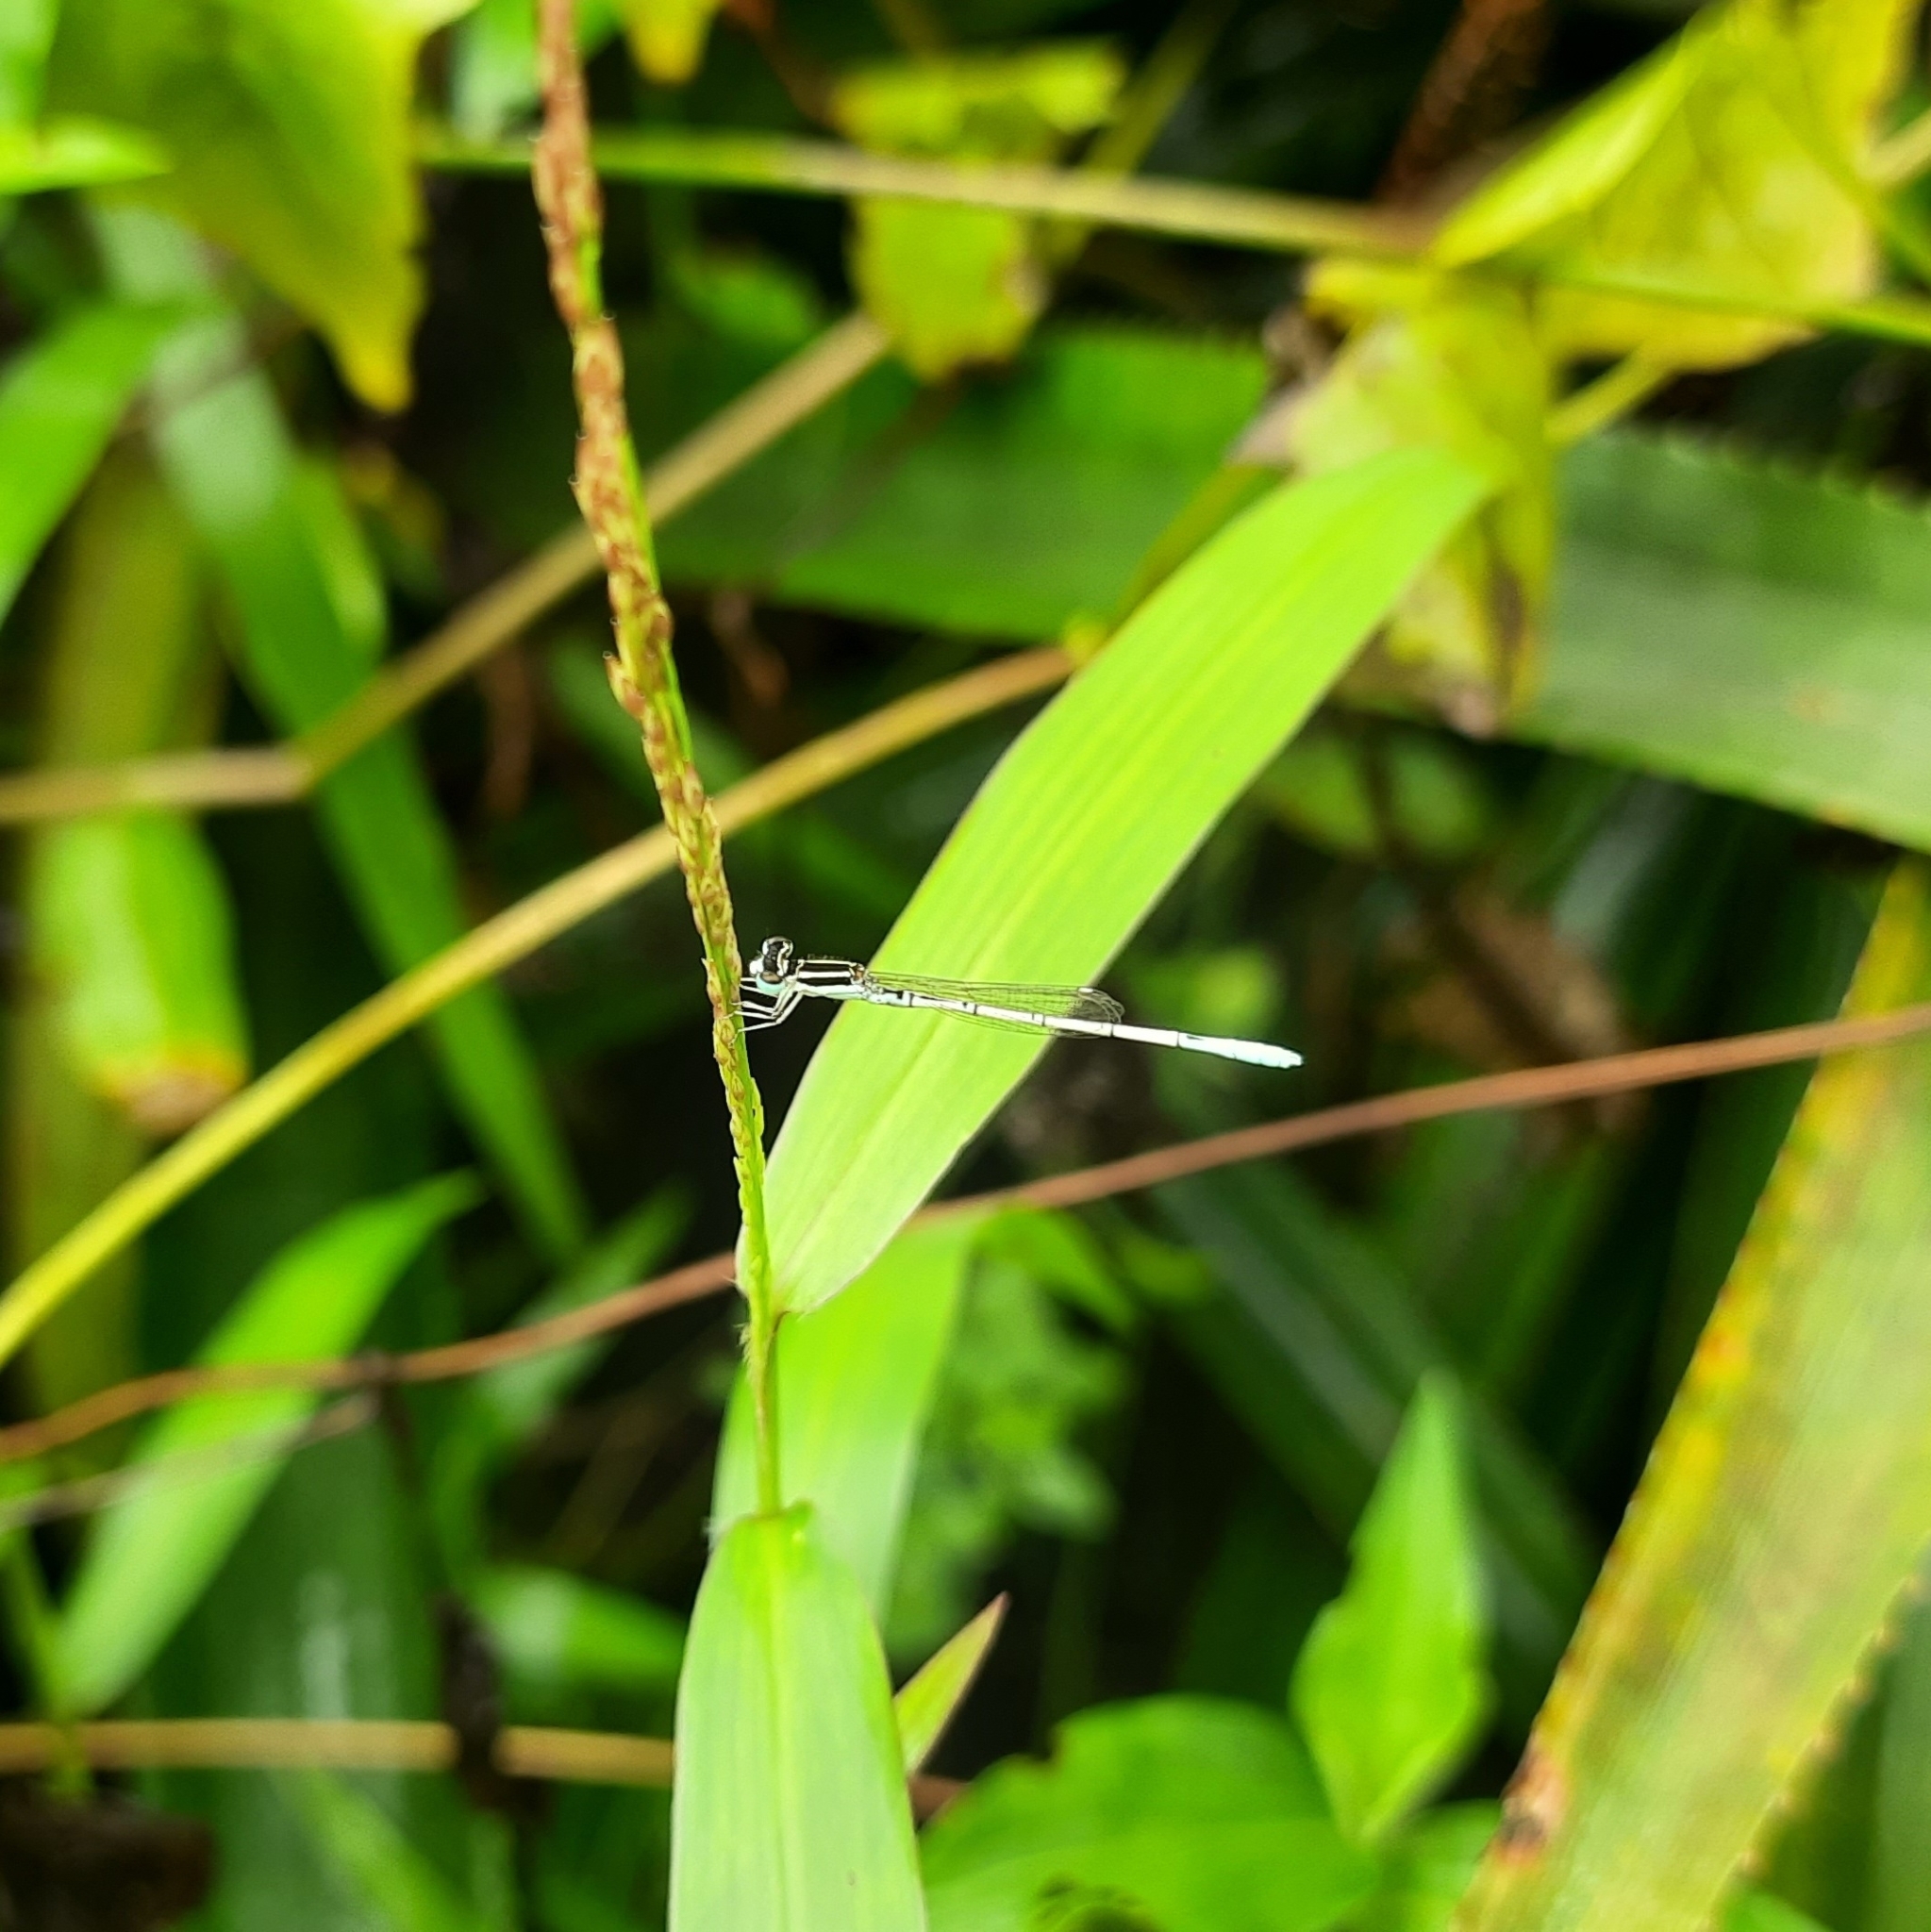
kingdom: Animalia
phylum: Arthropoda
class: Insecta
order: Odonata
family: Coenagrionidae
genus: Agriocnemis
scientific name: Agriocnemis pieris
